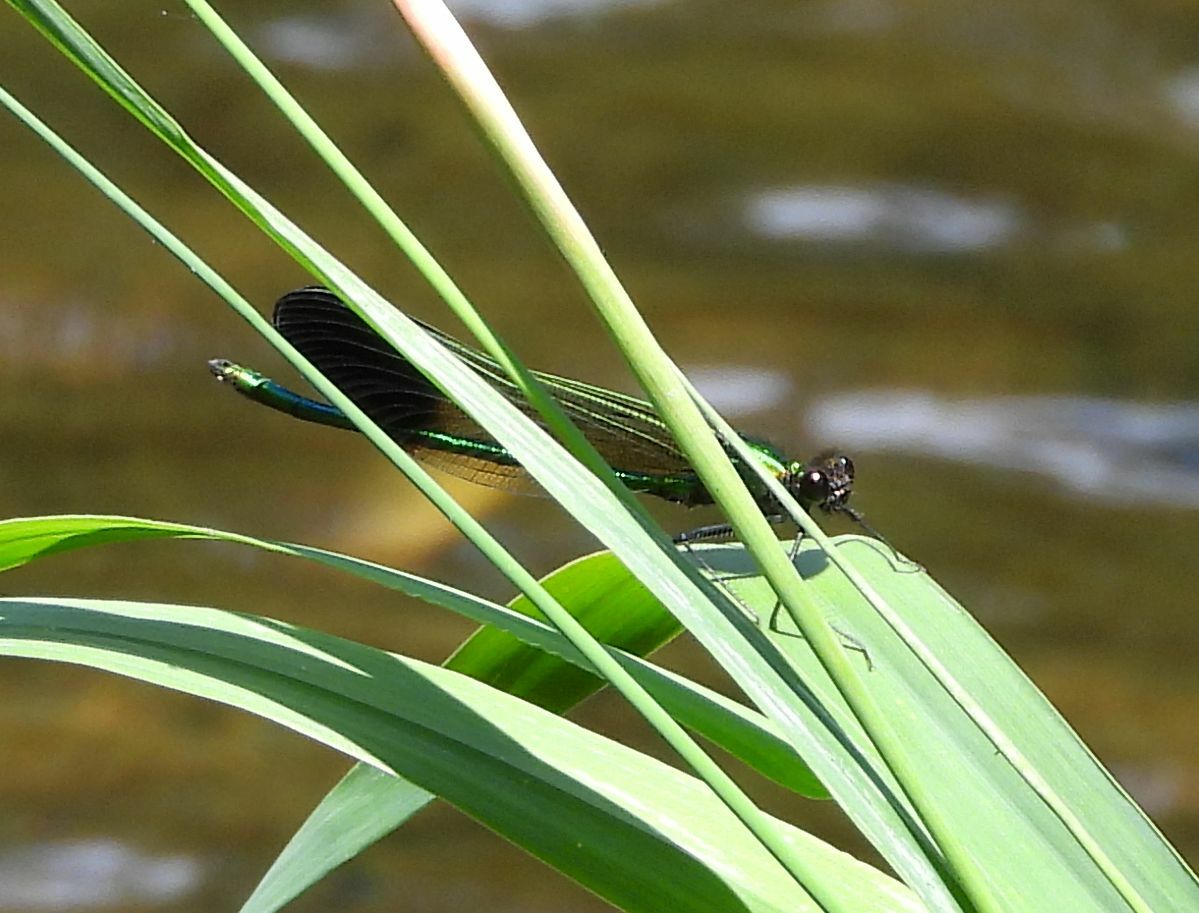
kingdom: Animalia
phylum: Arthropoda
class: Insecta
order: Odonata
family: Calopterygidae
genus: Calopteryx
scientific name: Calopteryx aequabilis
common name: River jewelwing
